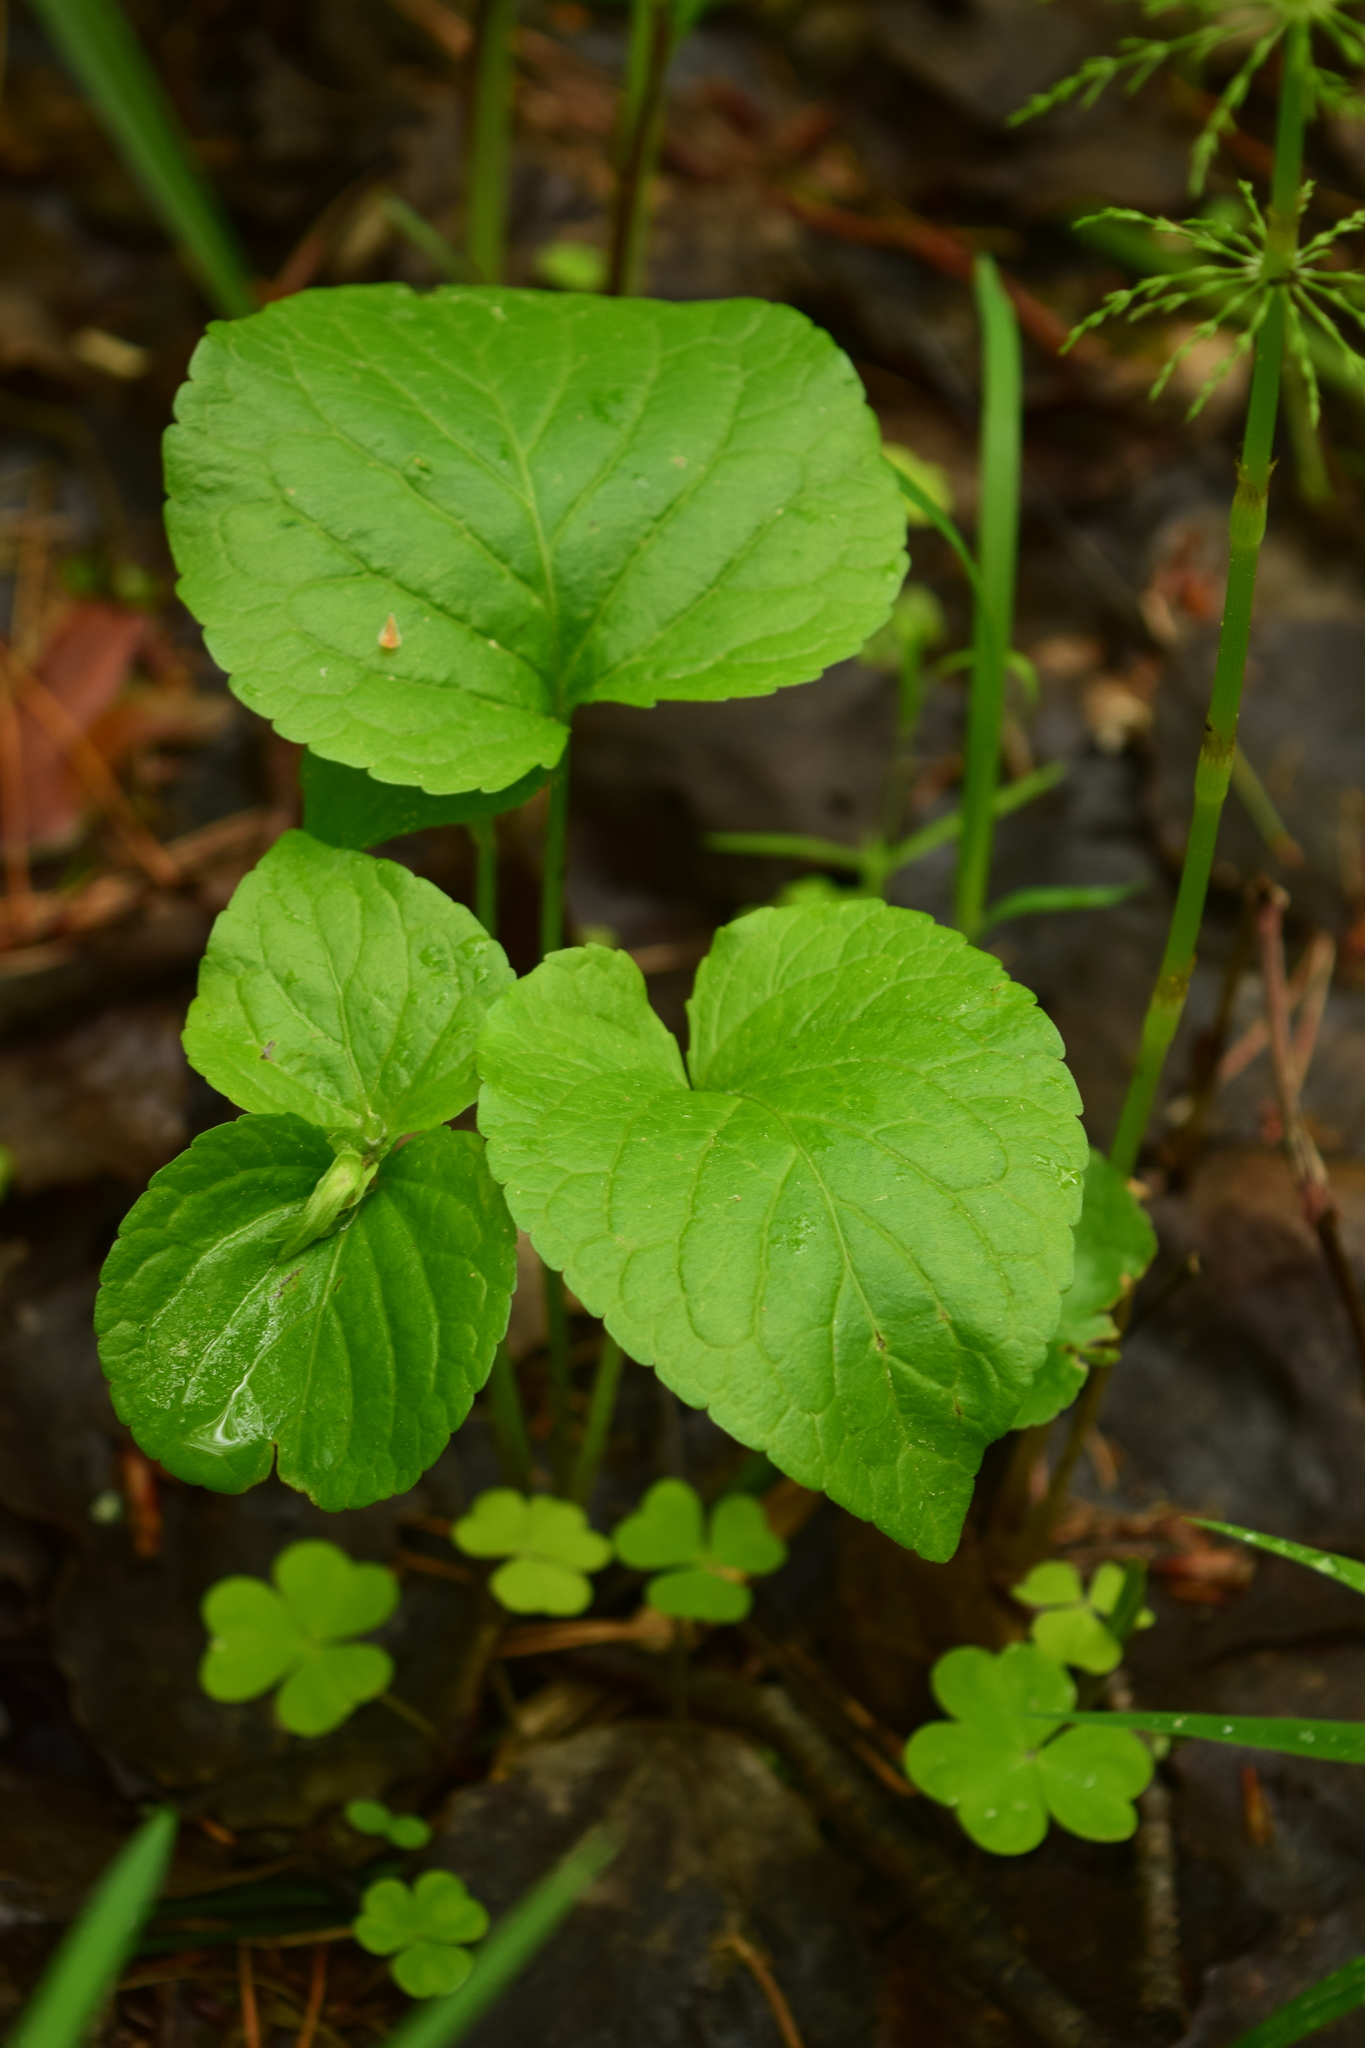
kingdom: Plantae
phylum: Tracheophyta
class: Magnoliopsida
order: Malpighiales
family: Violaceae
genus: Viola
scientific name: Viola mirabilis
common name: Wonder violet
